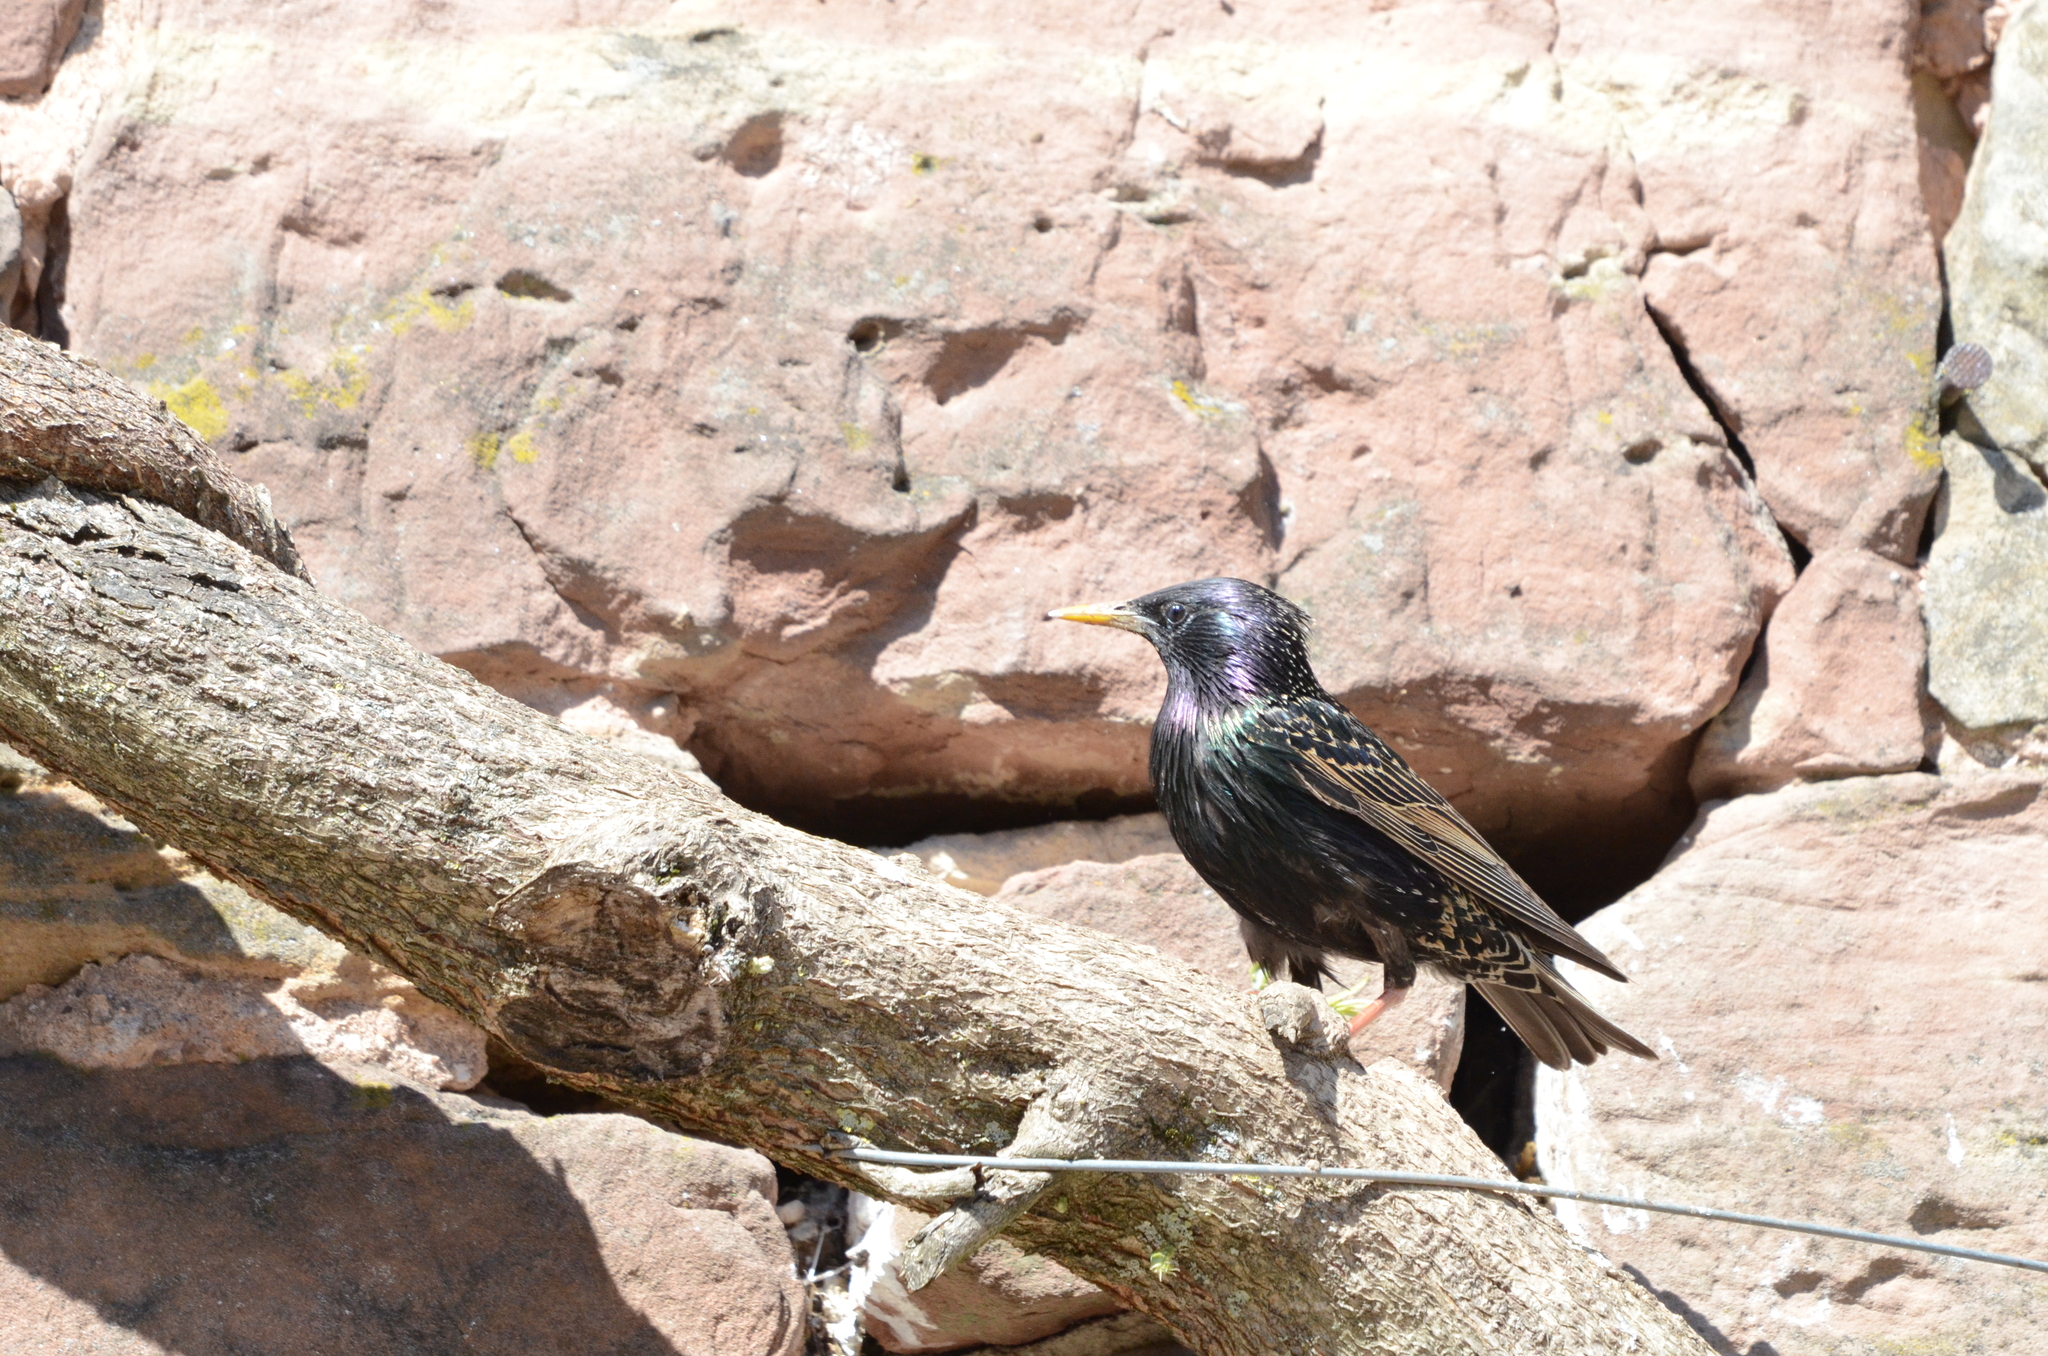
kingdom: Animalia
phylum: Chordata
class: Aves
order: Passeriformes
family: Sturnidae
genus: Sturnus
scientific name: Sturnus vulgaris
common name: Common starling
